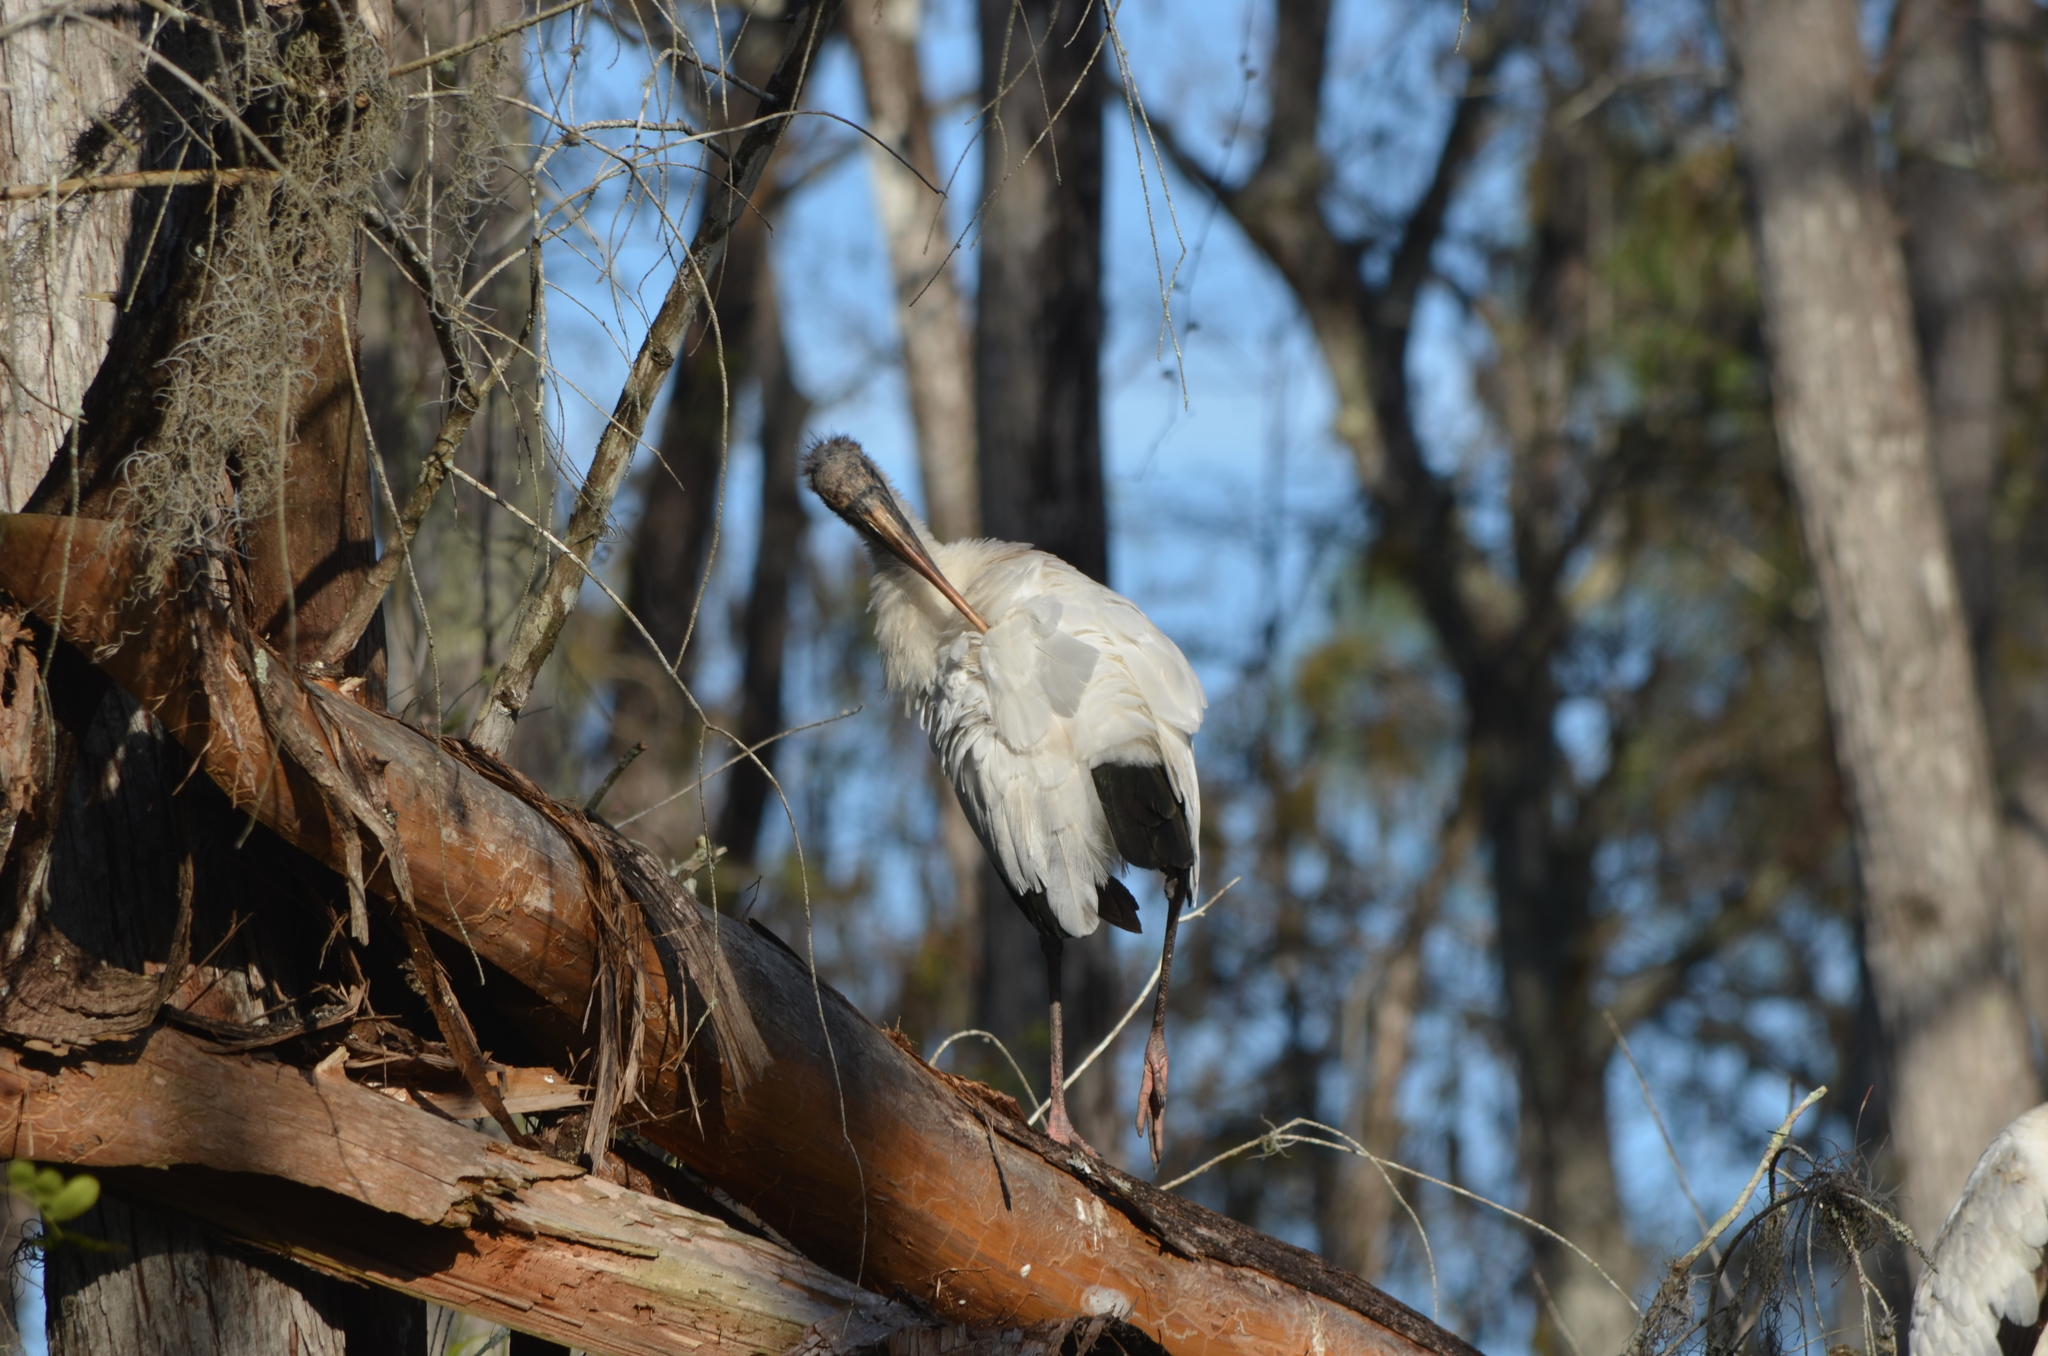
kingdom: Animalia
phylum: Chordata
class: Aves
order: Ciconiiformes
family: Ciconiidae
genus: Mycteria
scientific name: Mycteria americana
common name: Wood stork
